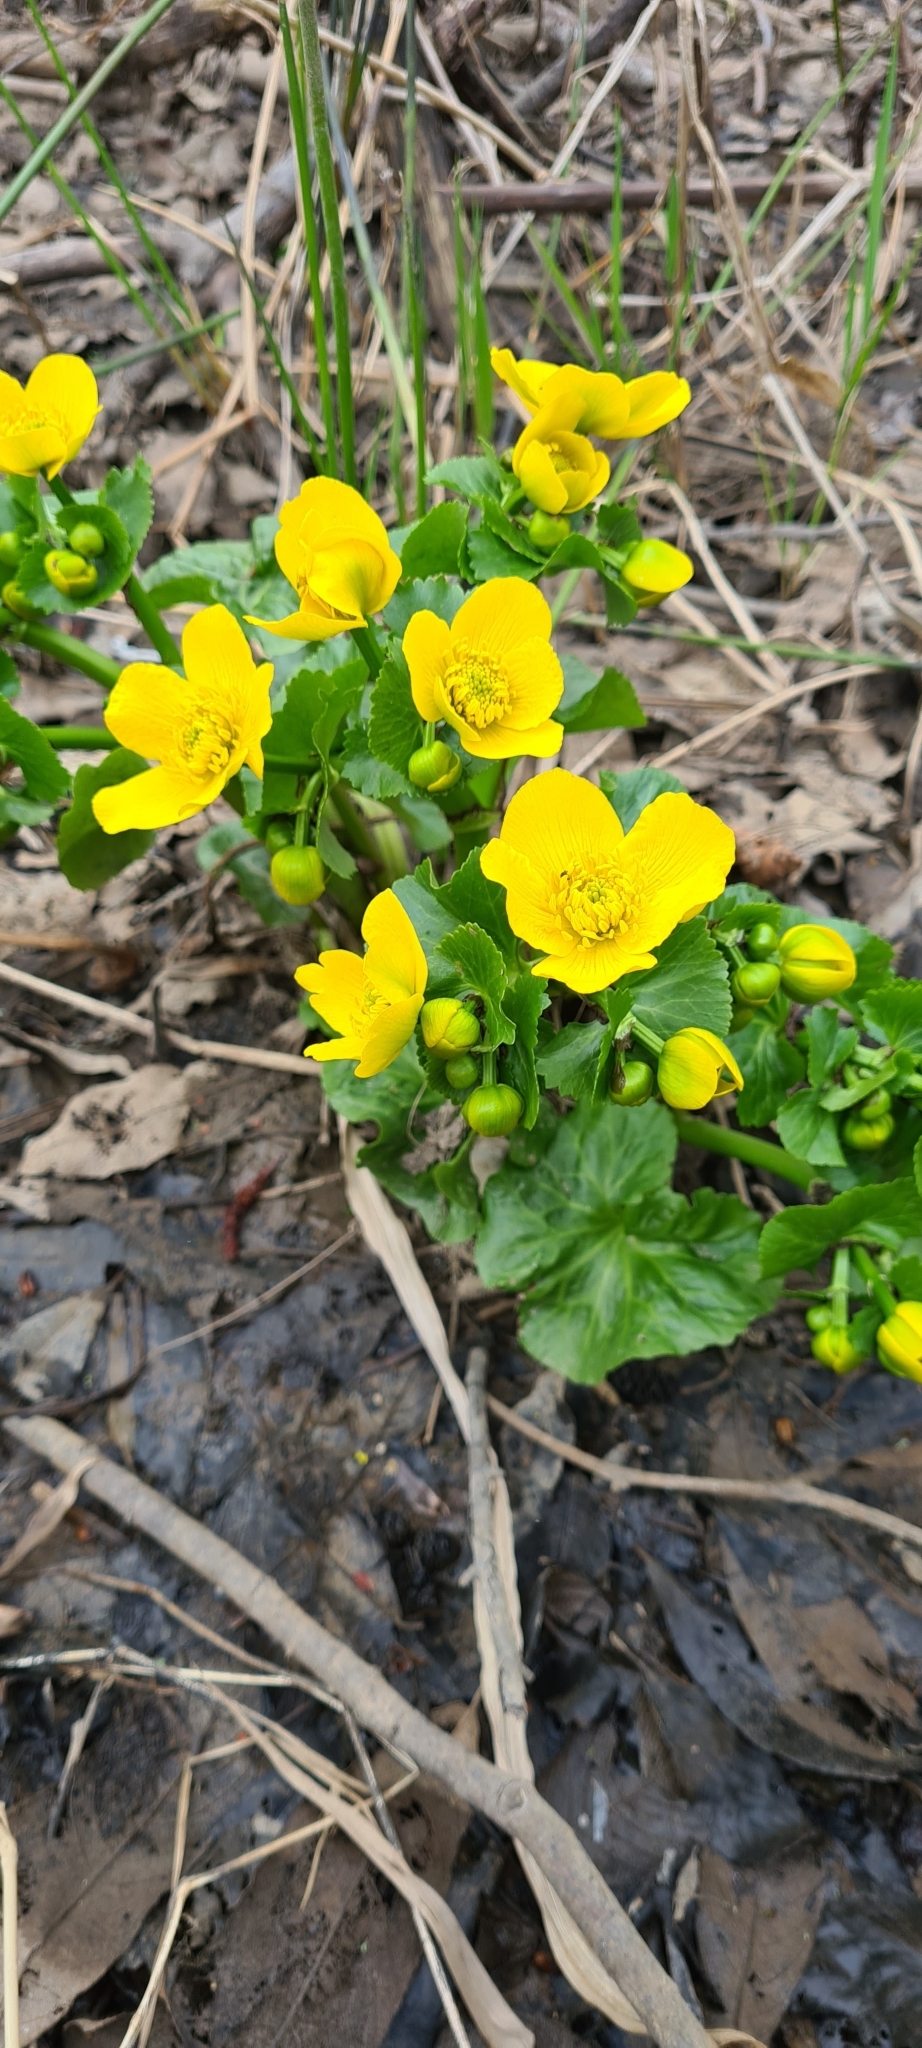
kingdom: Plantae
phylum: Tracheophyta
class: Magnoliopsida
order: Ranunculales
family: Ranunculaceae
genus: Caltha
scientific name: Caltha palustris
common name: Marsh marigold
